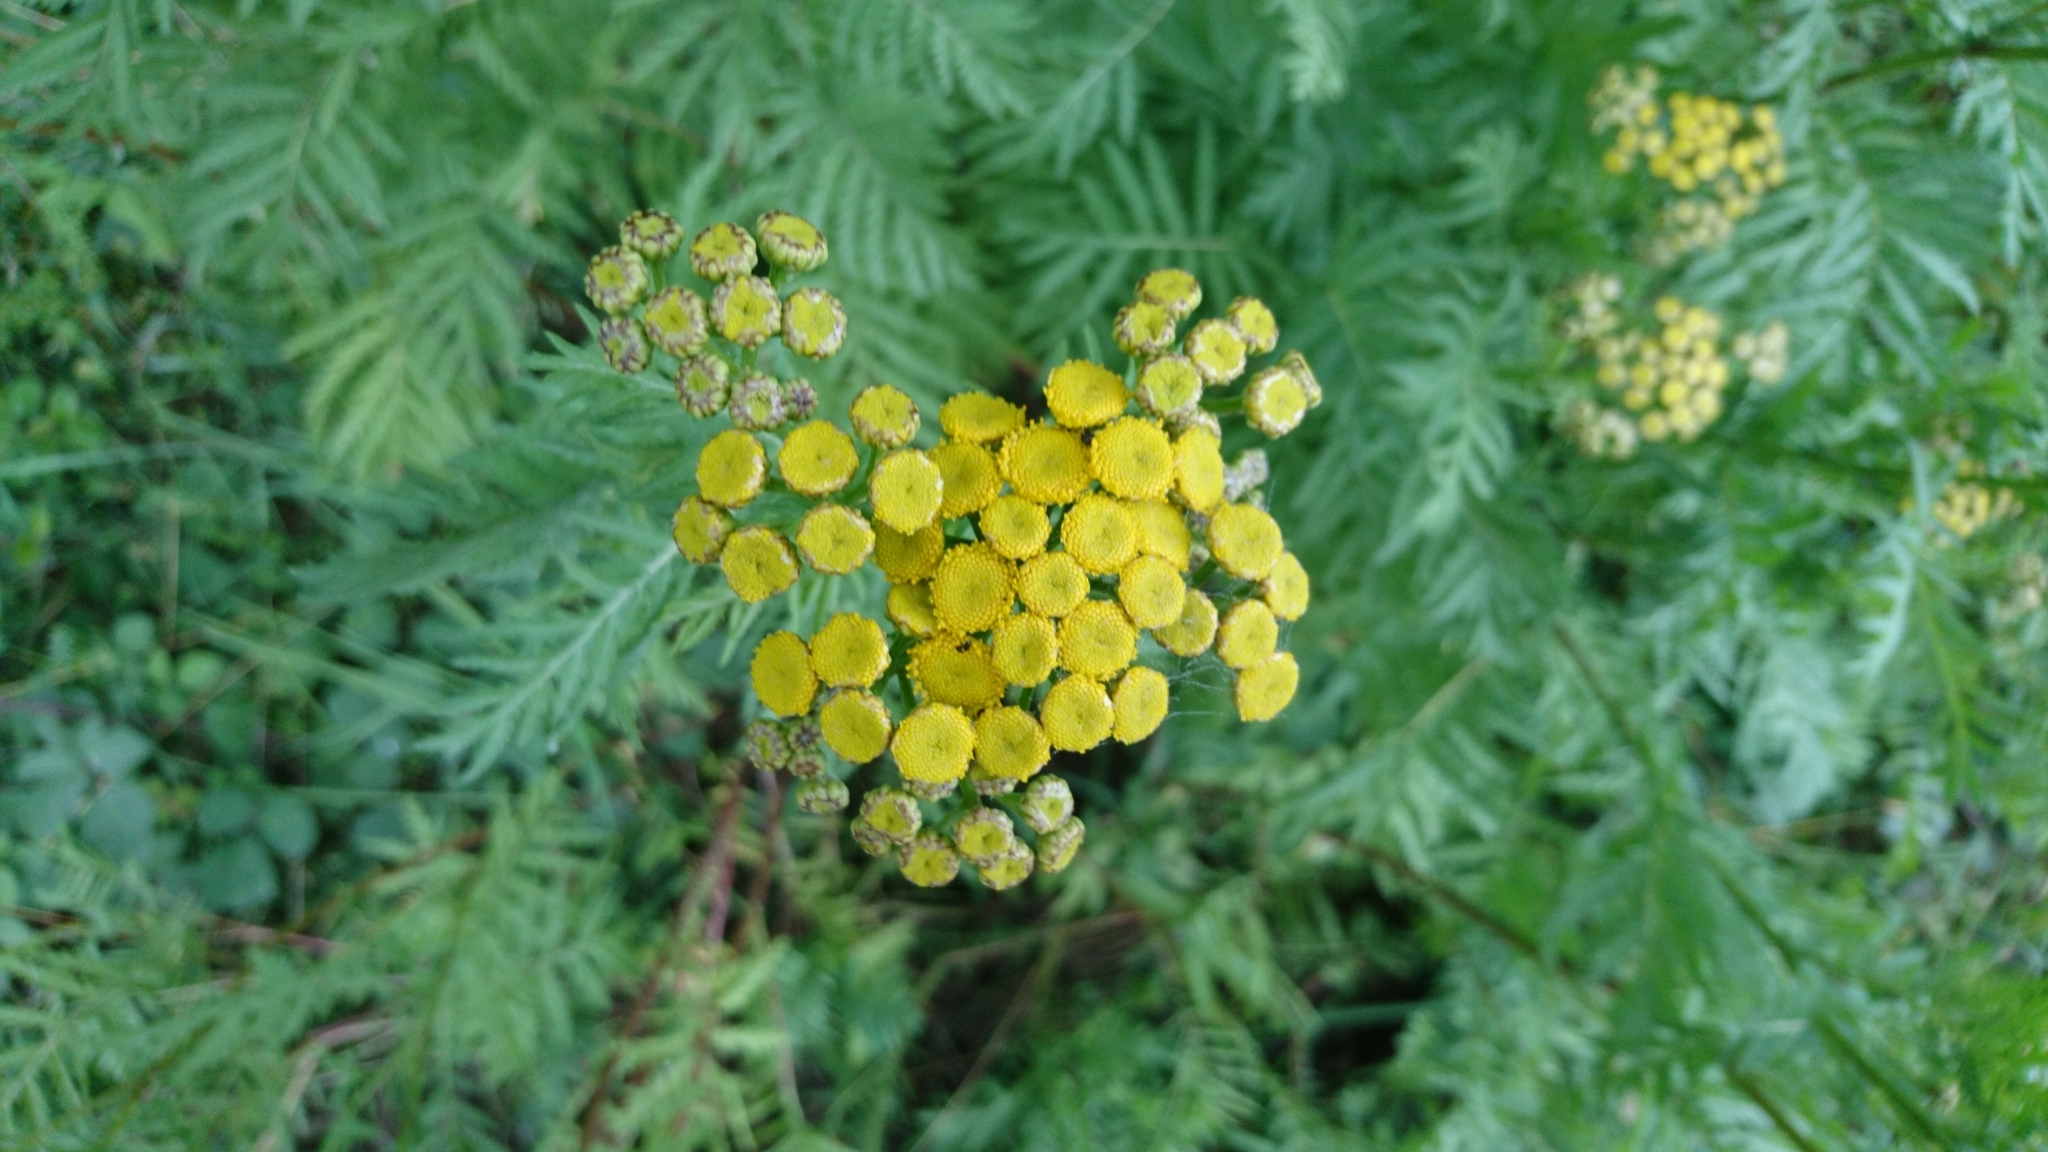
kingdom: Plantae
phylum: Tracheophyta
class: Magnoliopsida
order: Asterales
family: Asteraceae
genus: Tanacetum
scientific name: Tanacetum vulgare
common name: Common tansy
